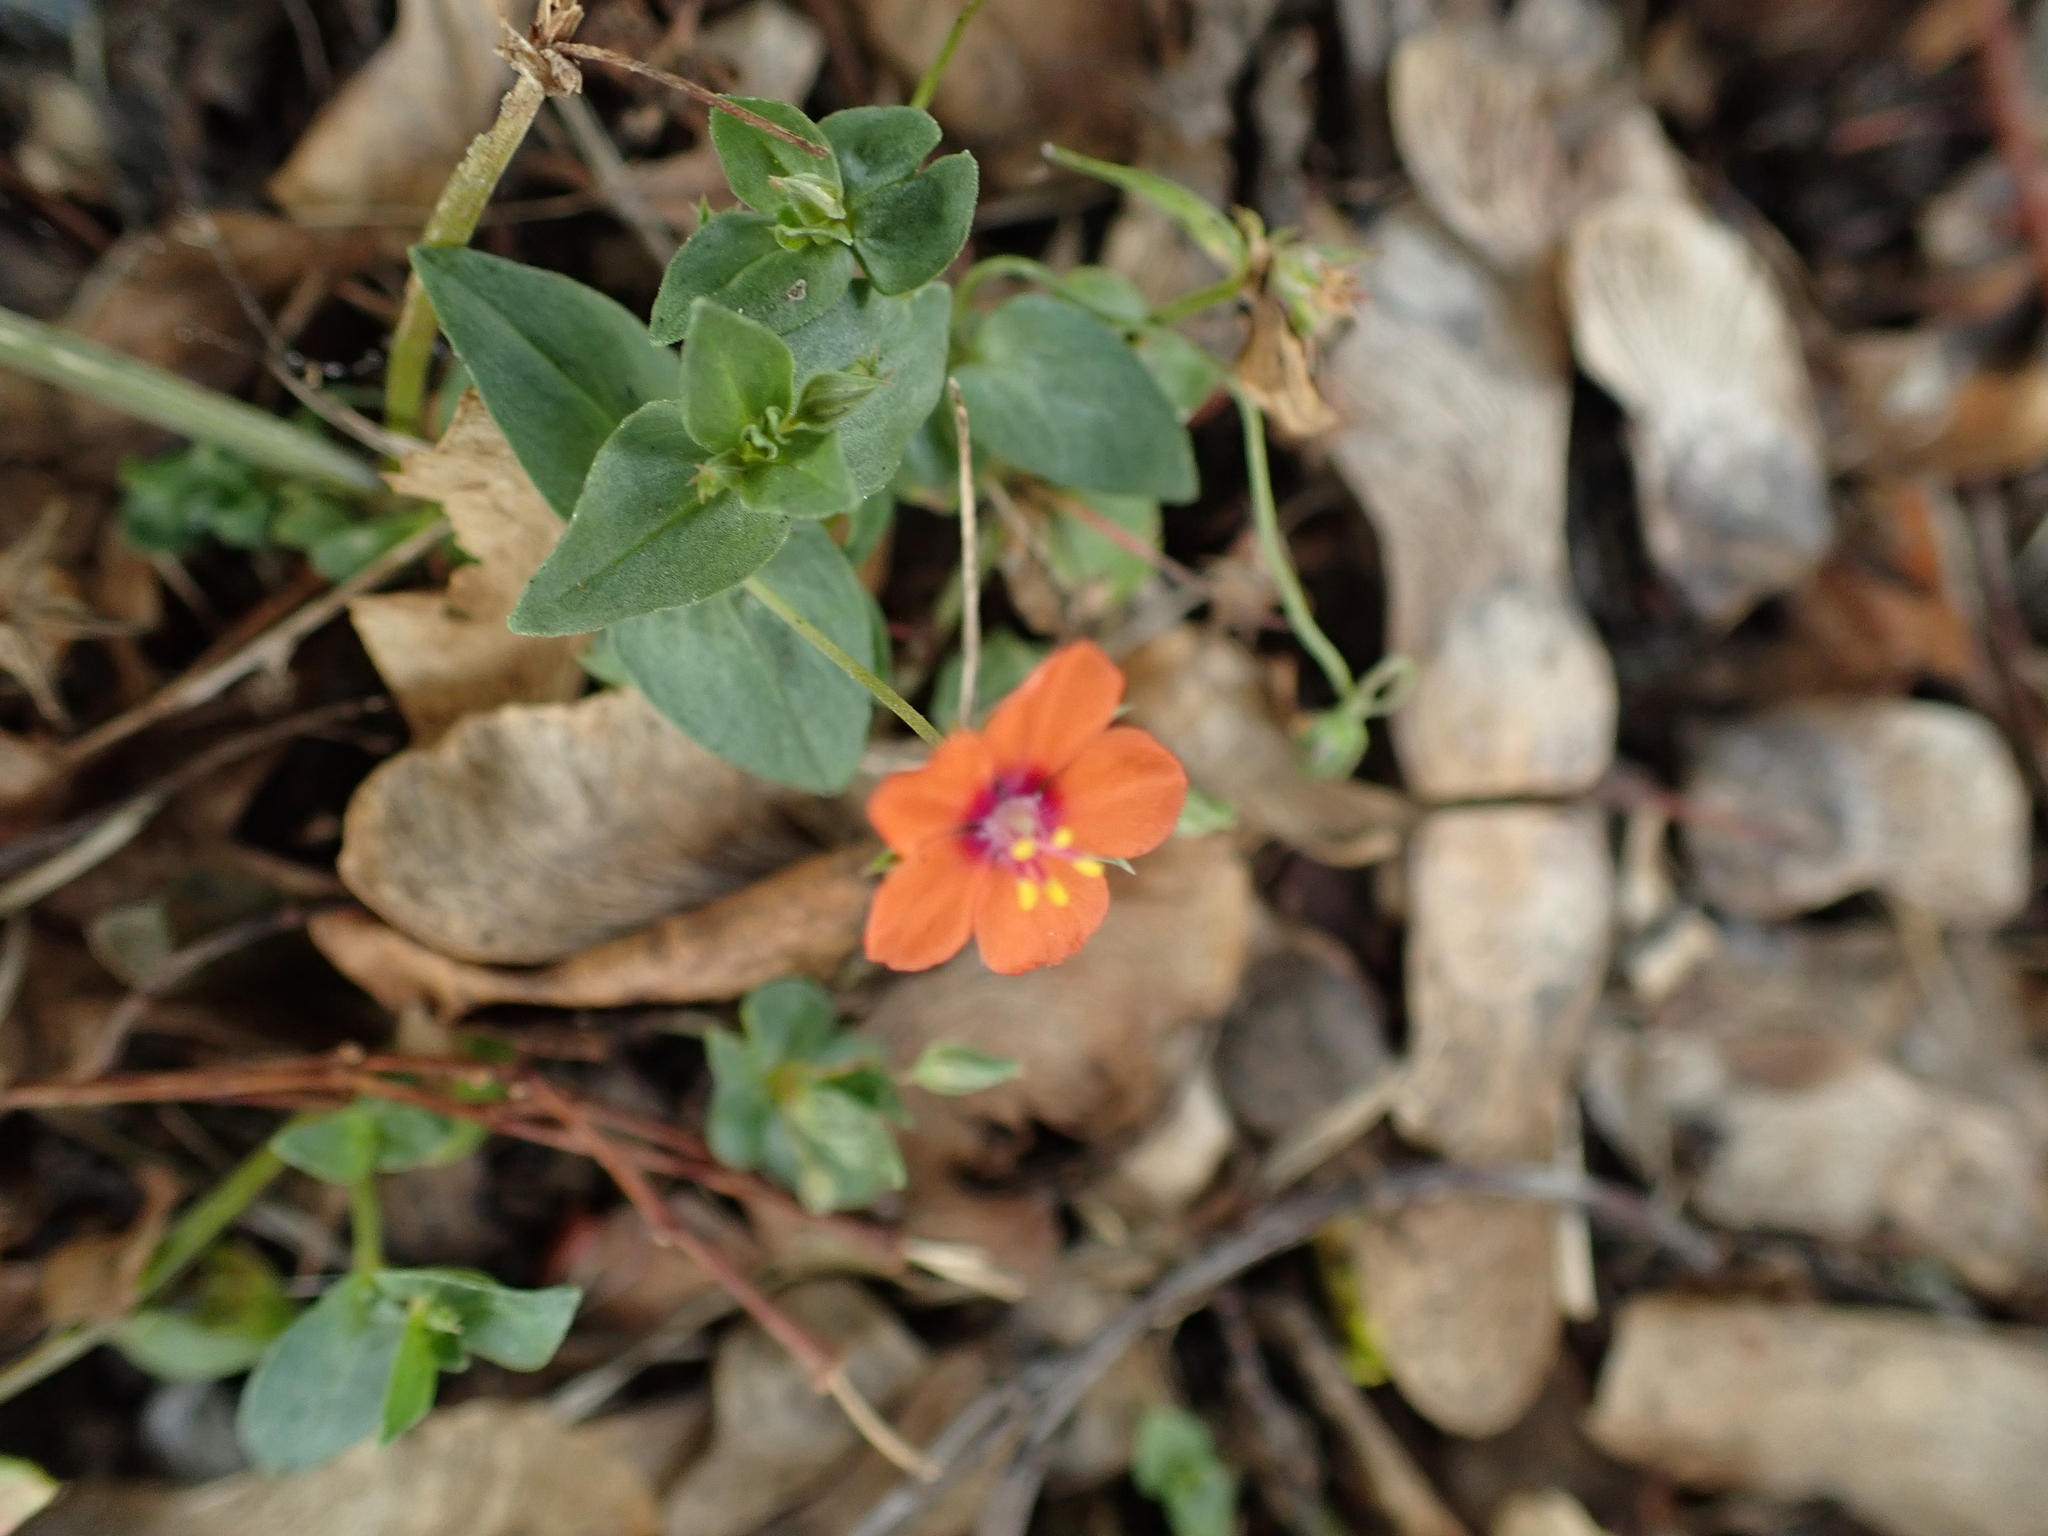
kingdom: Plantae
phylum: Tracheophyta
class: Magnoliopsida
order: Ericales
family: Primulaceae
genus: Lysimachia
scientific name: Lysimachia arvensis
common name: Scarlet pimpernel
